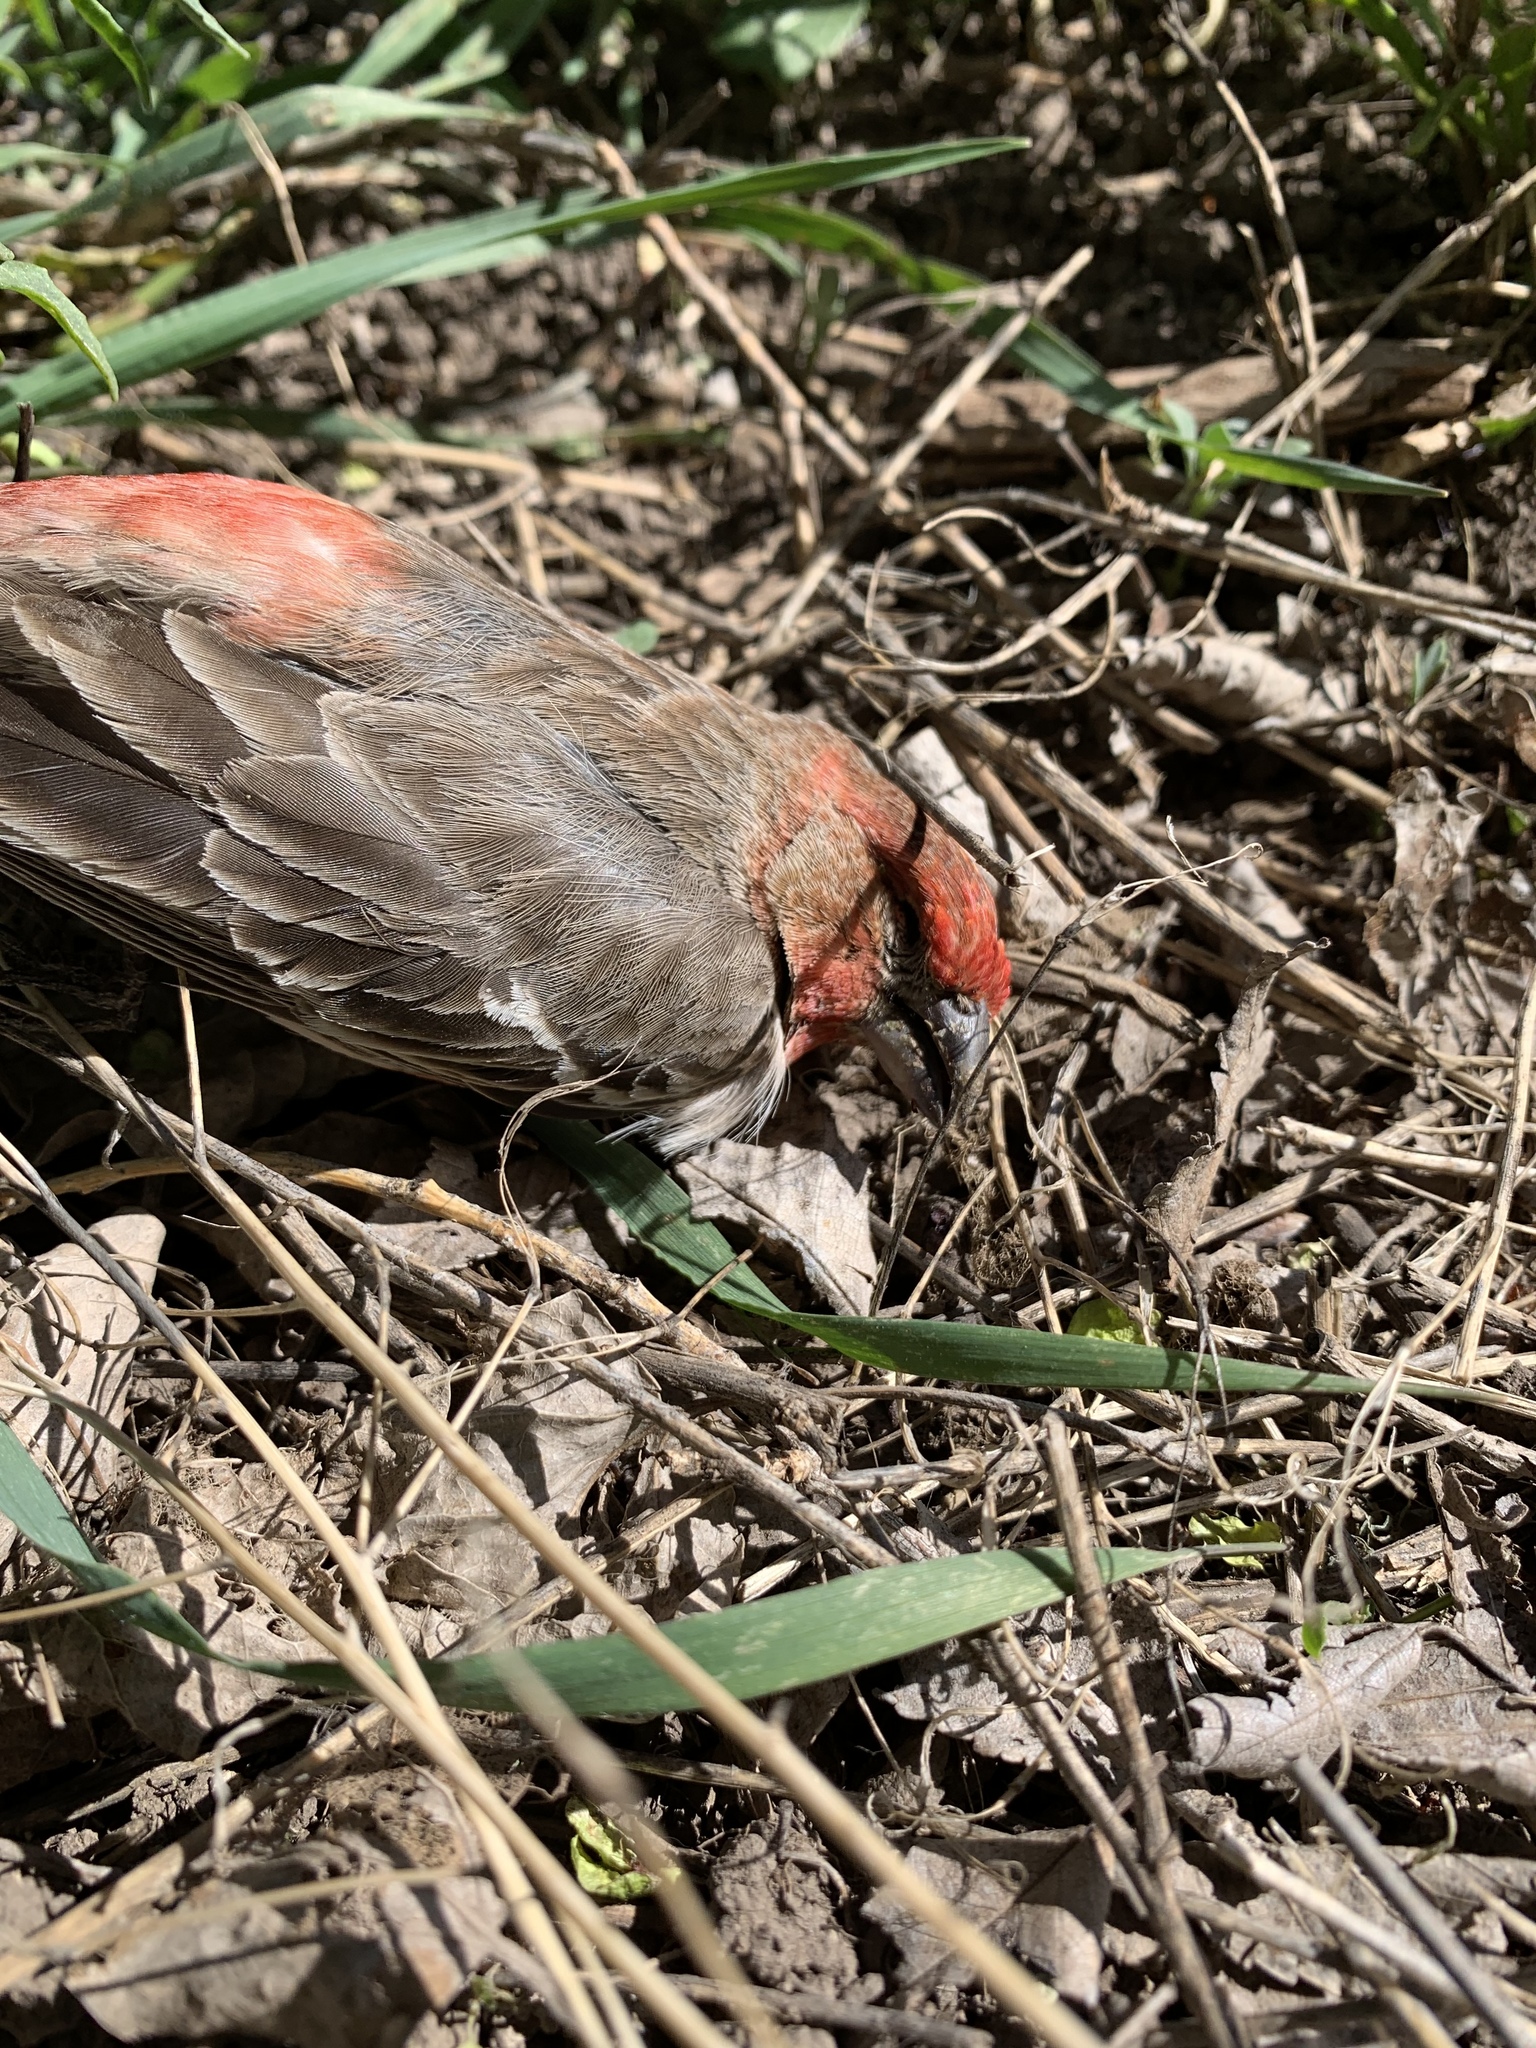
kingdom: Animalia
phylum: Chordata
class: Aves
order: Passeriformes
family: Fringillidae
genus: Haemorhous
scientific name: Haemorhous mexicanus
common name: House finch
